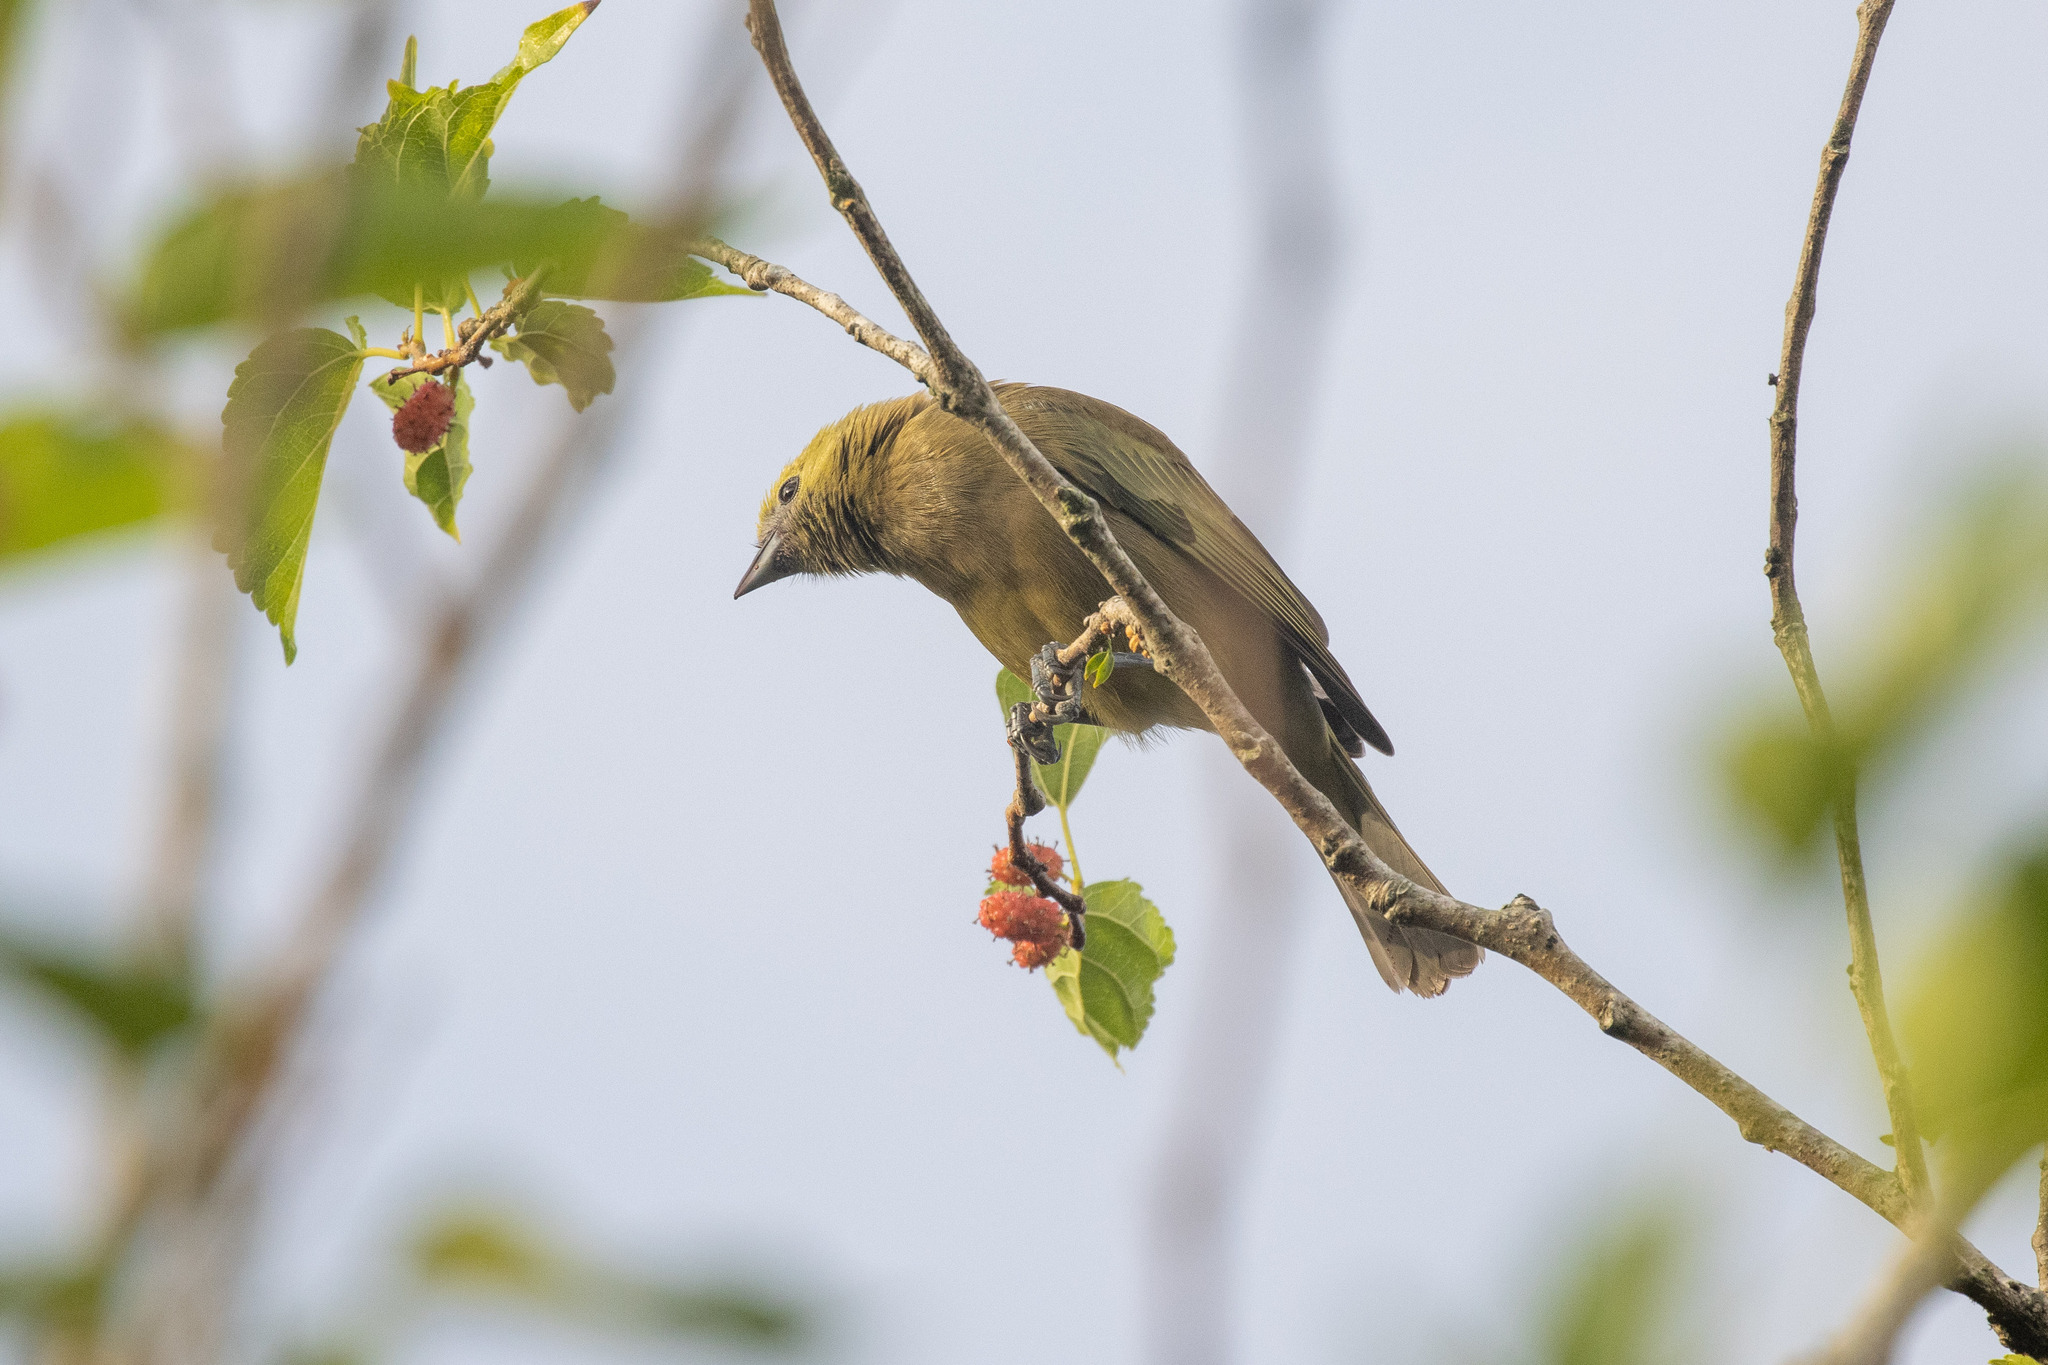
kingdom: Animalia
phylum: Chordata
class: Aves
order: Passeriformes
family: Thraupidae
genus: Thraupis
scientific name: Thraupis palmarum
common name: Palm tanager
